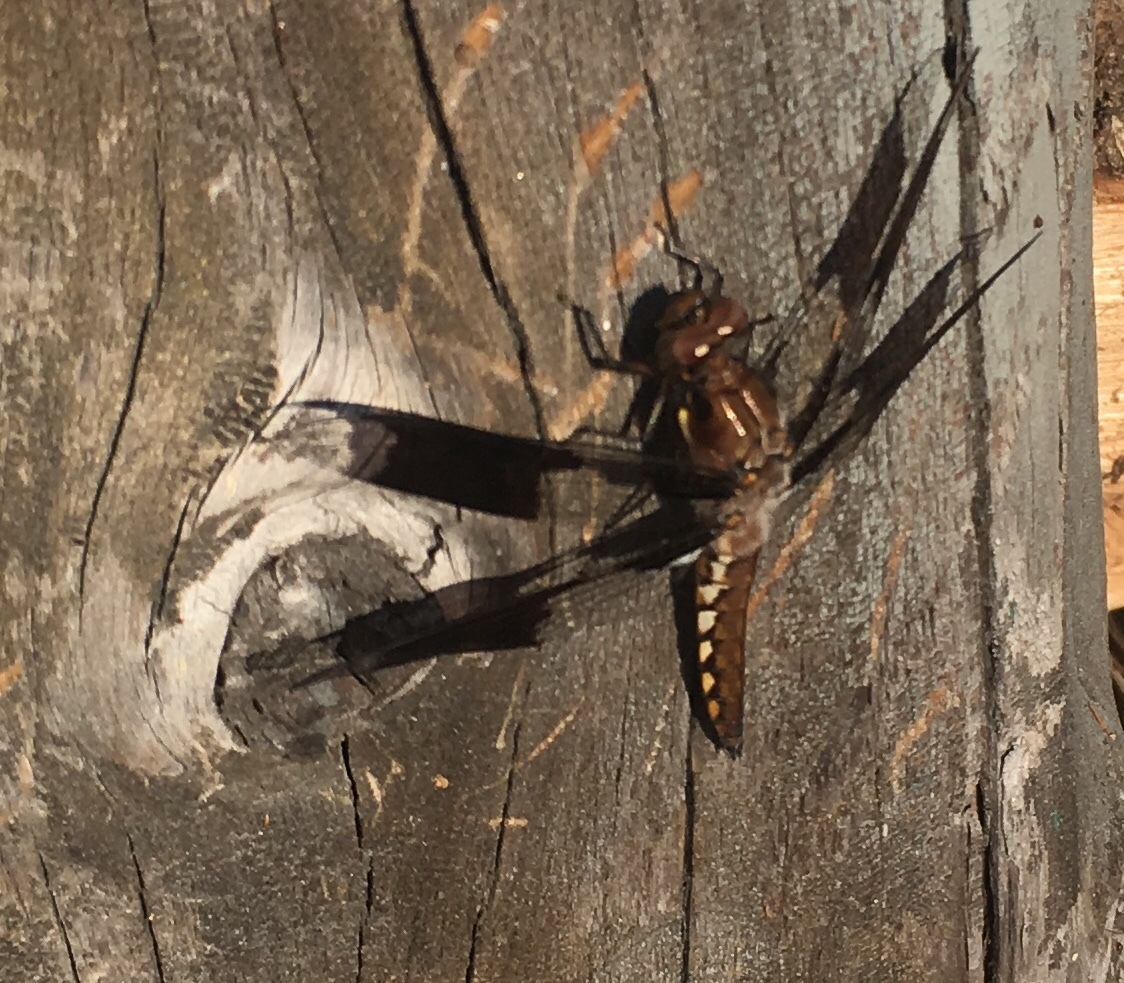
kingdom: Animalia
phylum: Arthropoda
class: Insecta
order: Odonata
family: Libellulidae
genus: Plathemis
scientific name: Plathemis lydia
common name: Common whitetail
